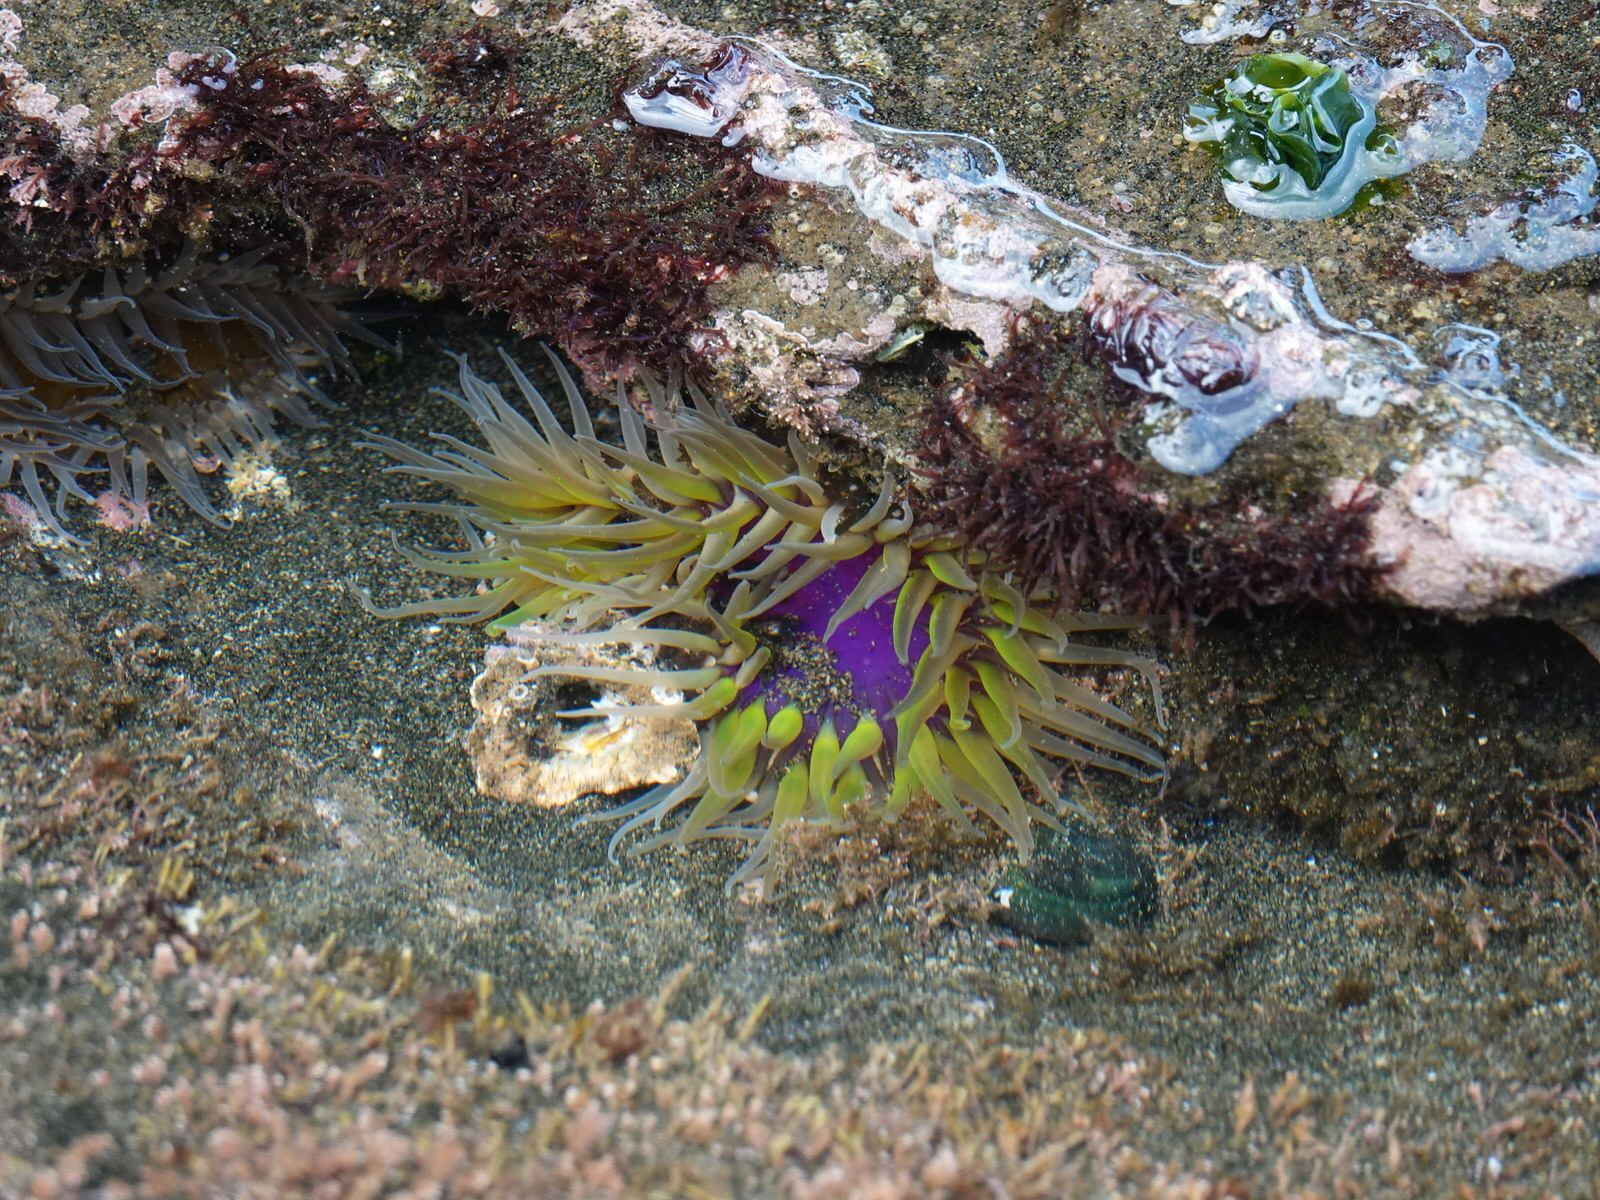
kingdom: Animalia
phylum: Cnidaria
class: Anthozoa
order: Actiniaria
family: Actiniidae
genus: Oulactis
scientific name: Oulactis magna
